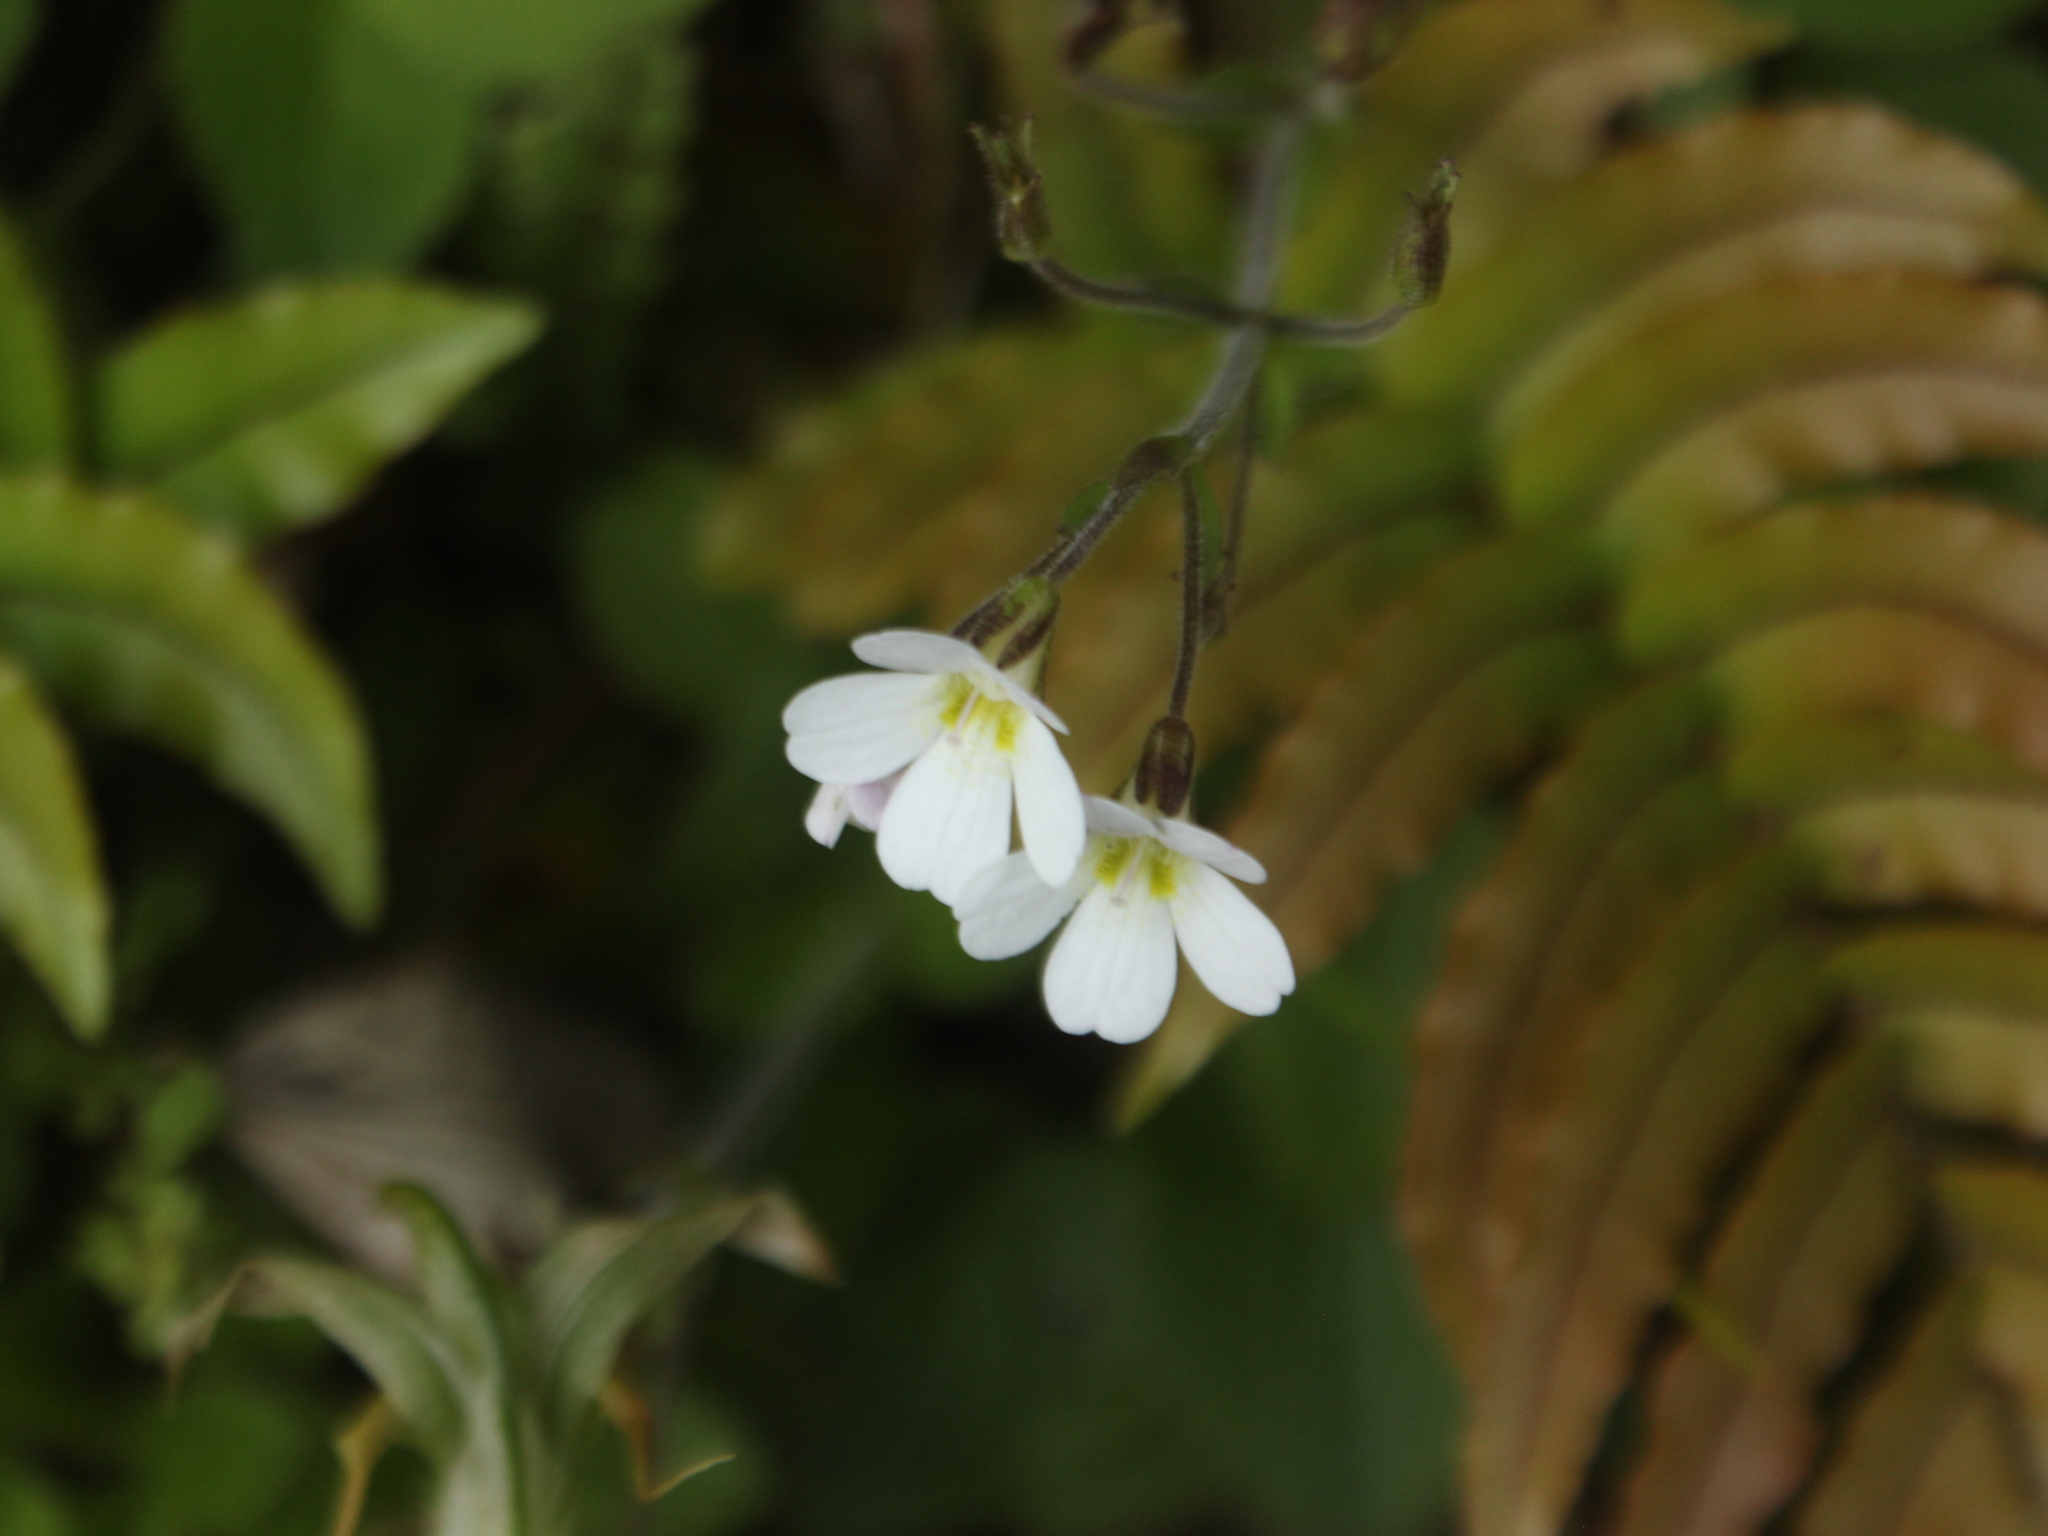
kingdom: Plantae
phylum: Tracheophyta
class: Magnoliopsida
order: Lamiales
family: Plantaginaceae
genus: Ourisia
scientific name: Ourisia macrophylla
